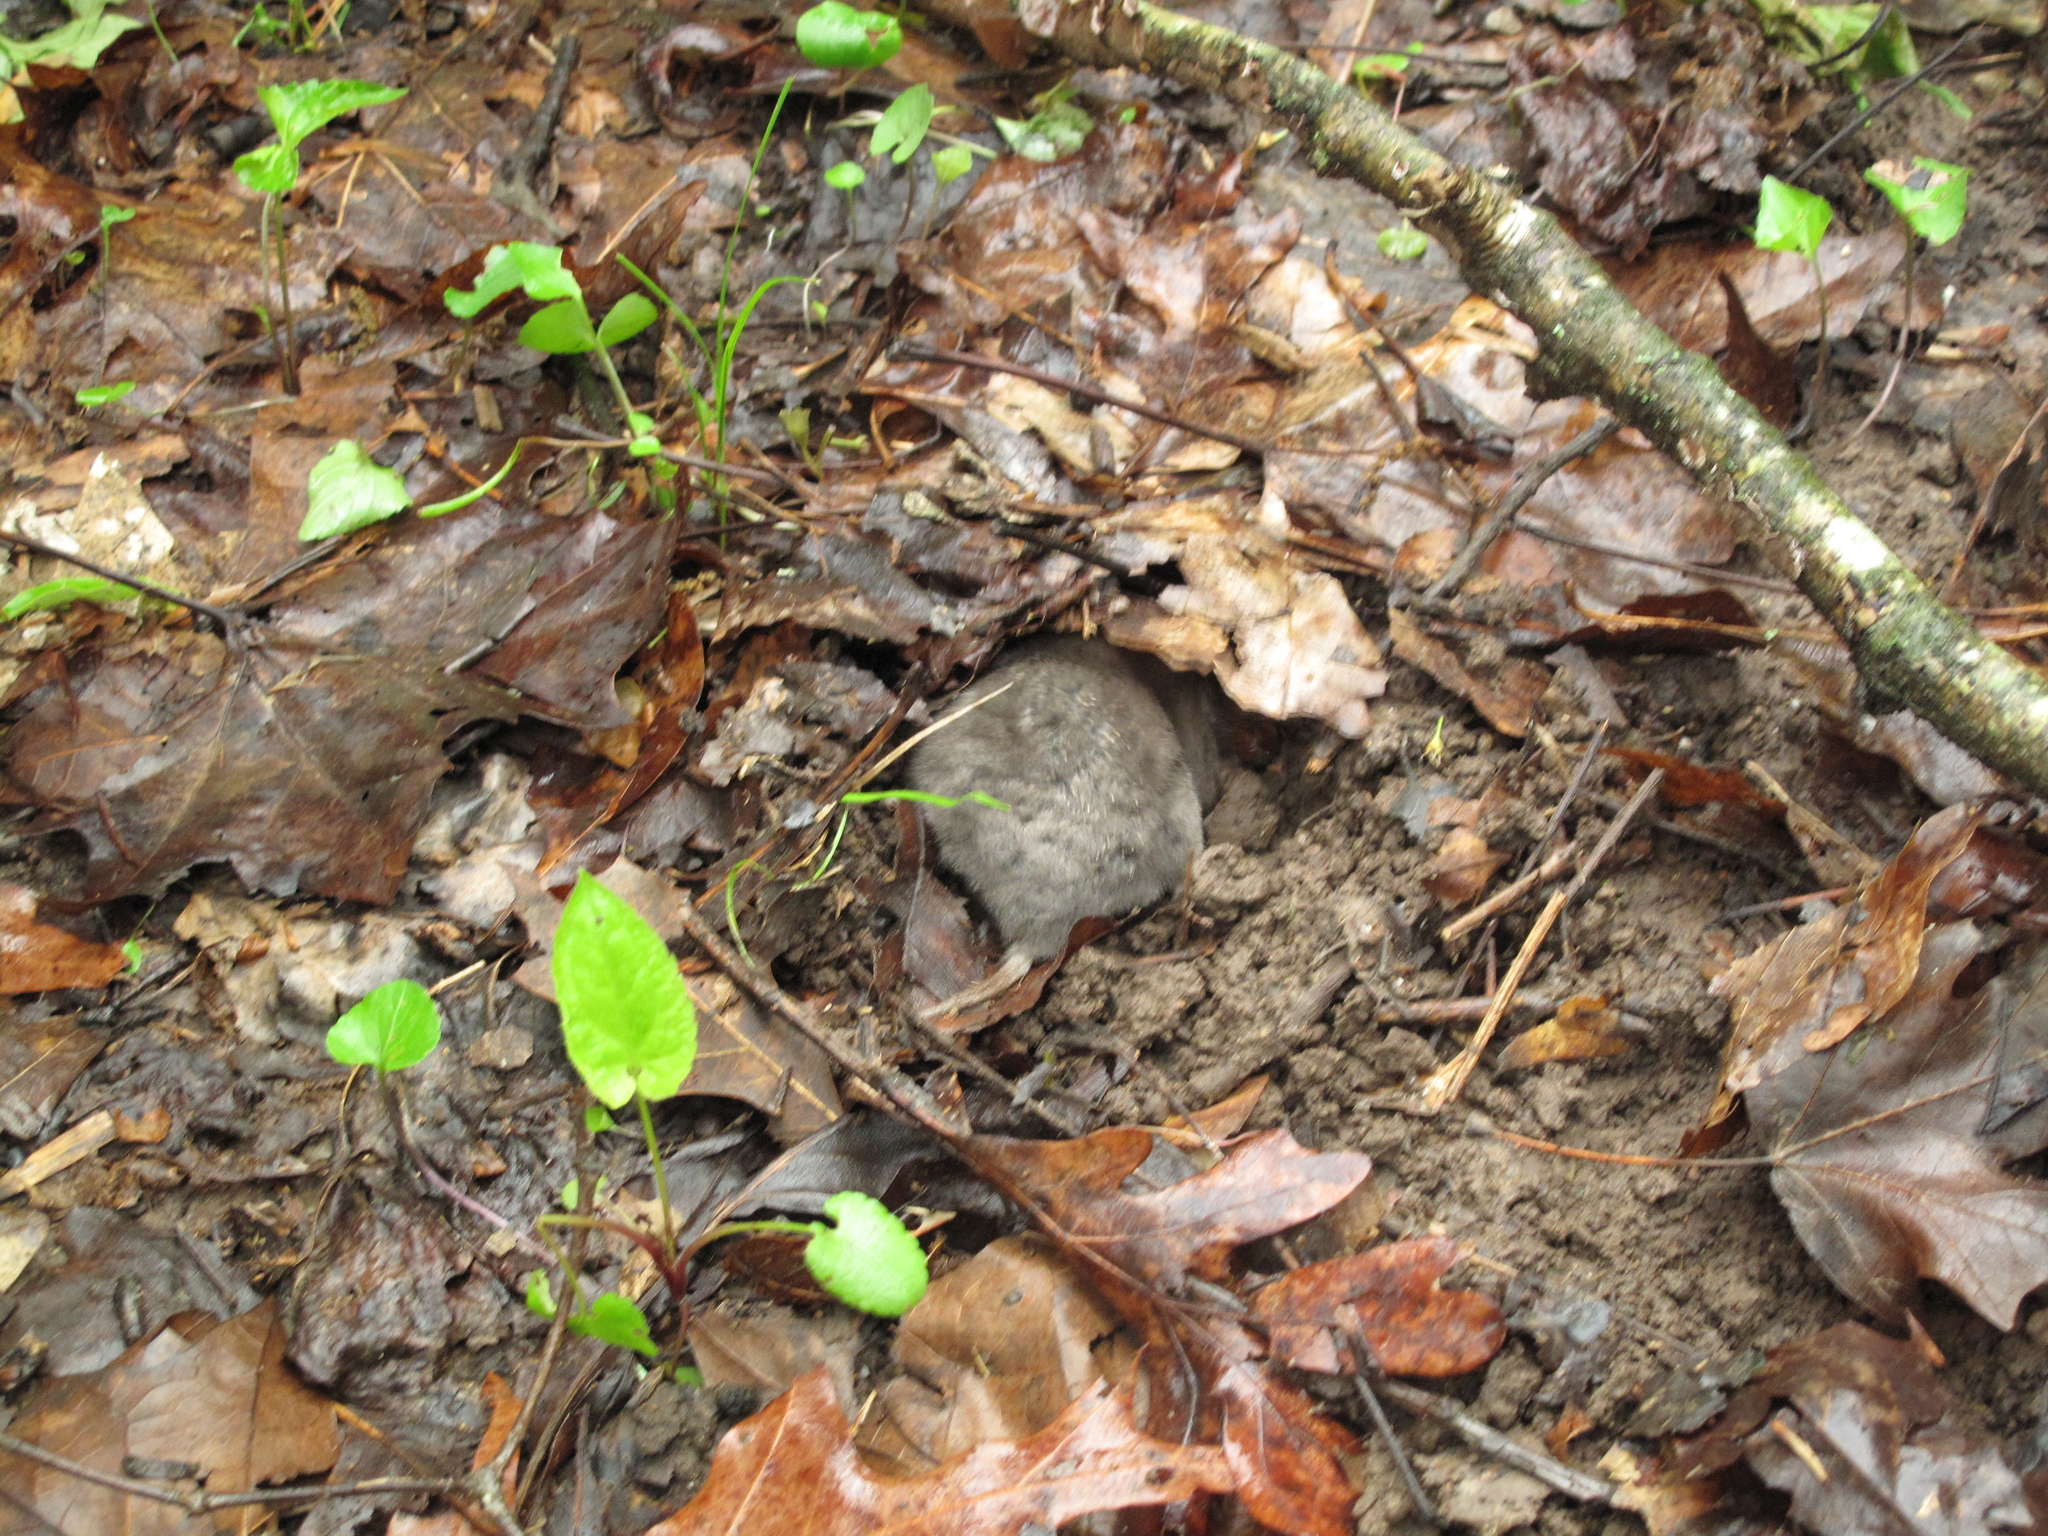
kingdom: Animalia
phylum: Chordata
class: Mammalia
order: Soricomorpha
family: Talpidae
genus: Scalopus
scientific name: Scalopus aquaticus
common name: Eastern mole
